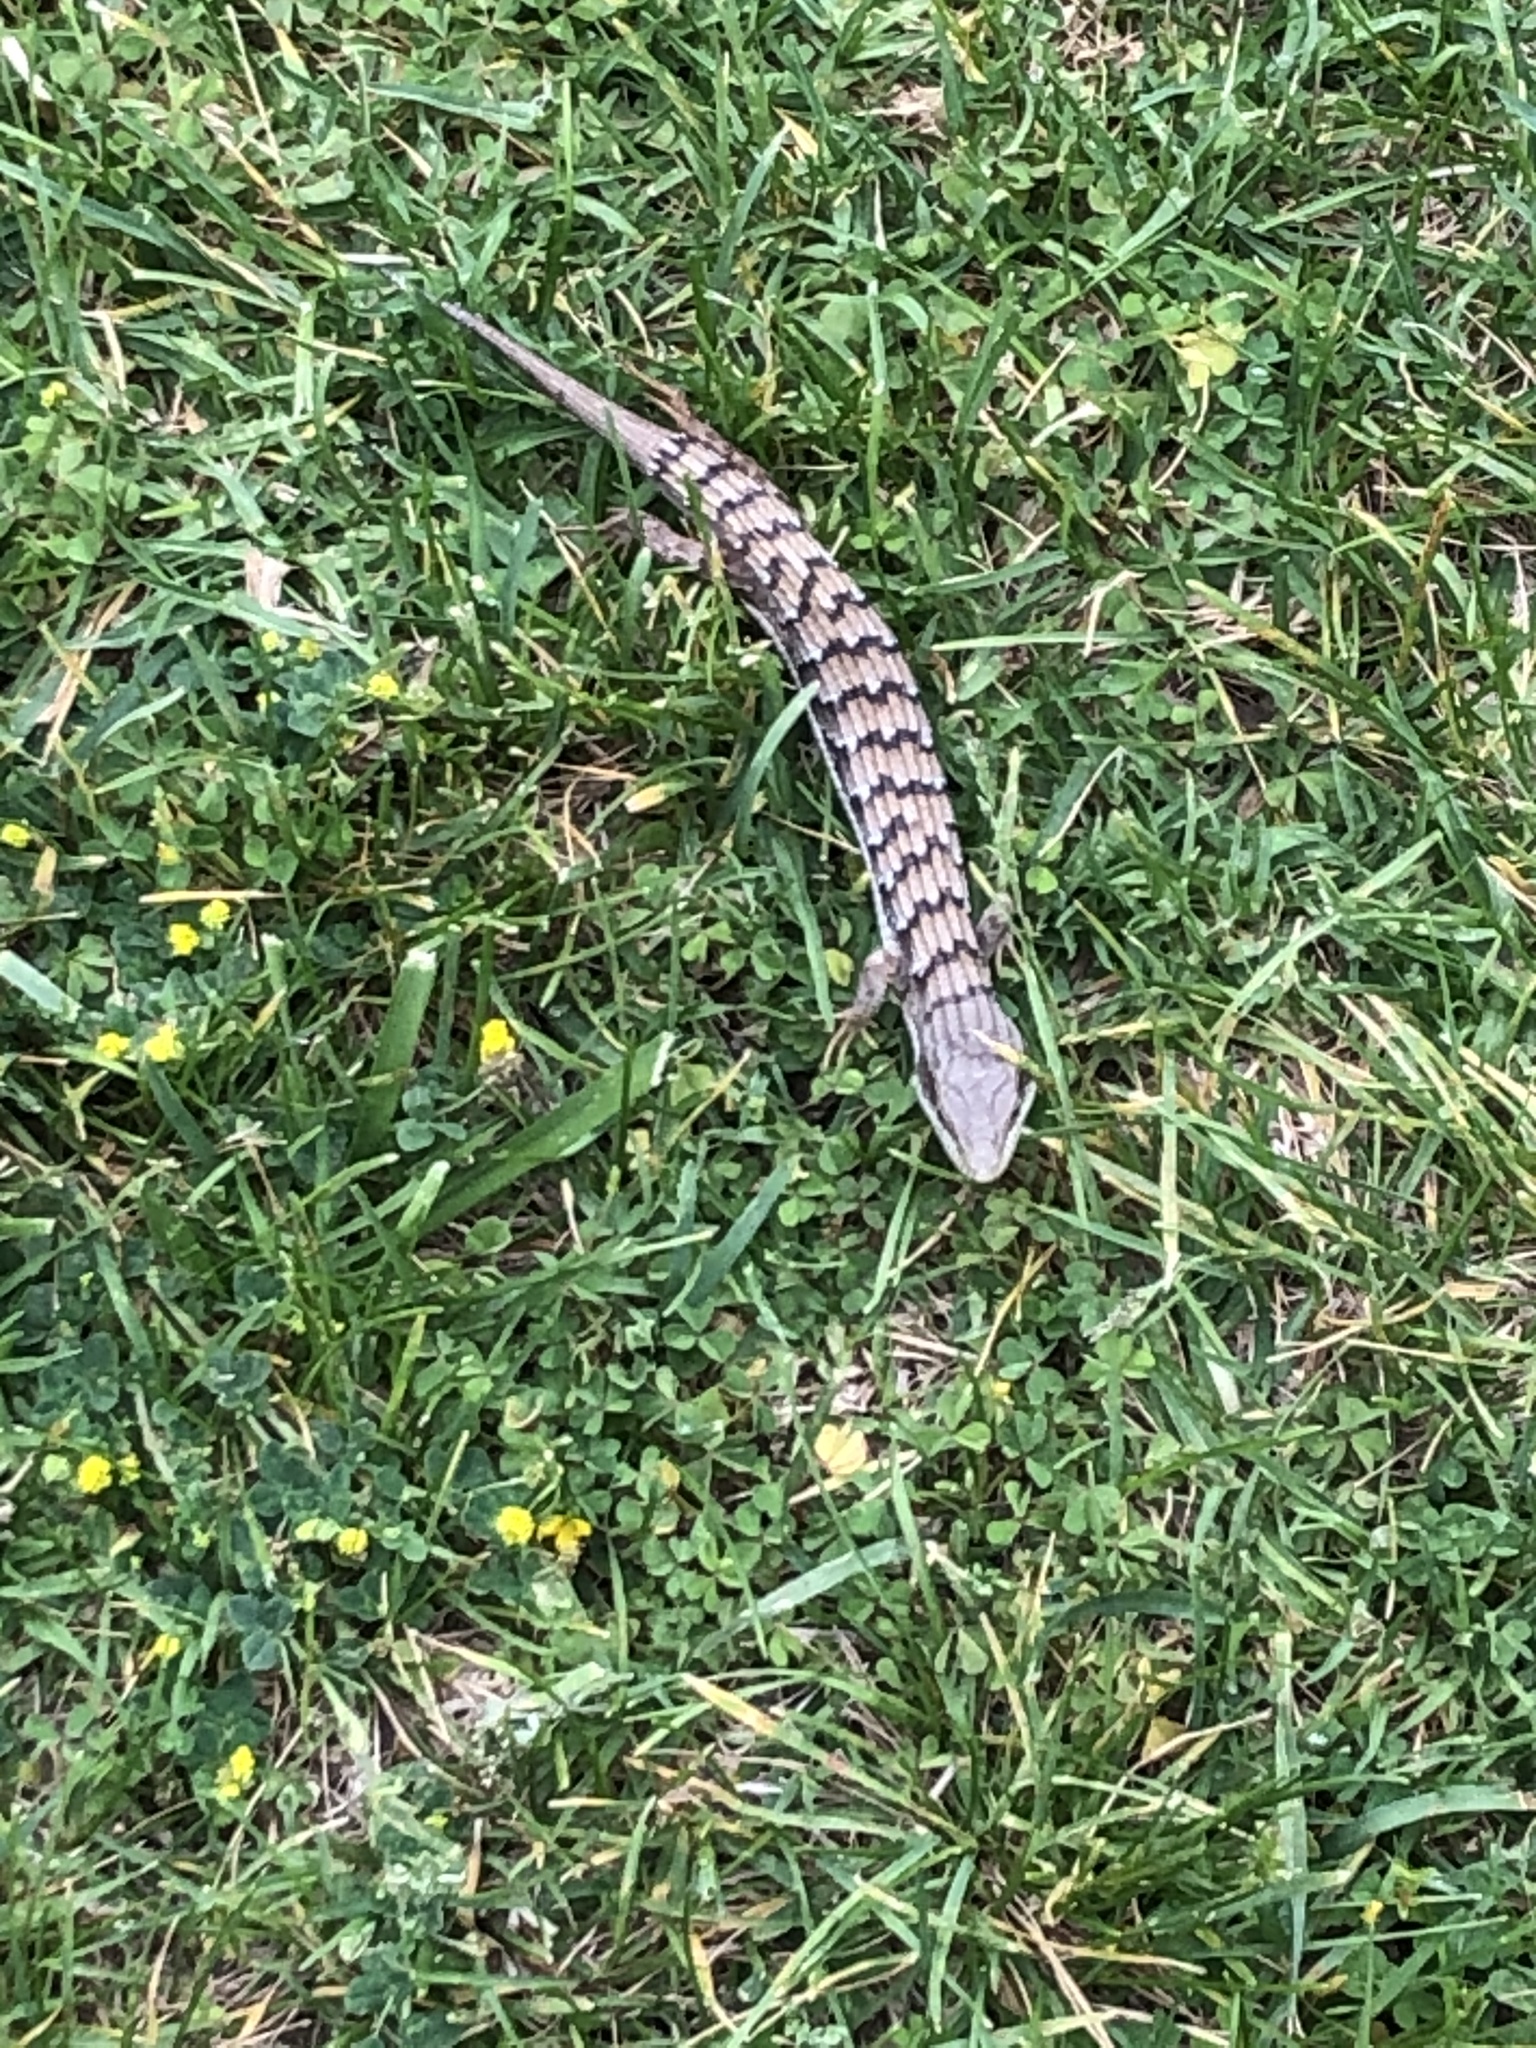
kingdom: Animalia
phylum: Chordata
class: Squamata
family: Anguidae
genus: Elgaria
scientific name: Elgaria multicarinata
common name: Southern alligator lizard
